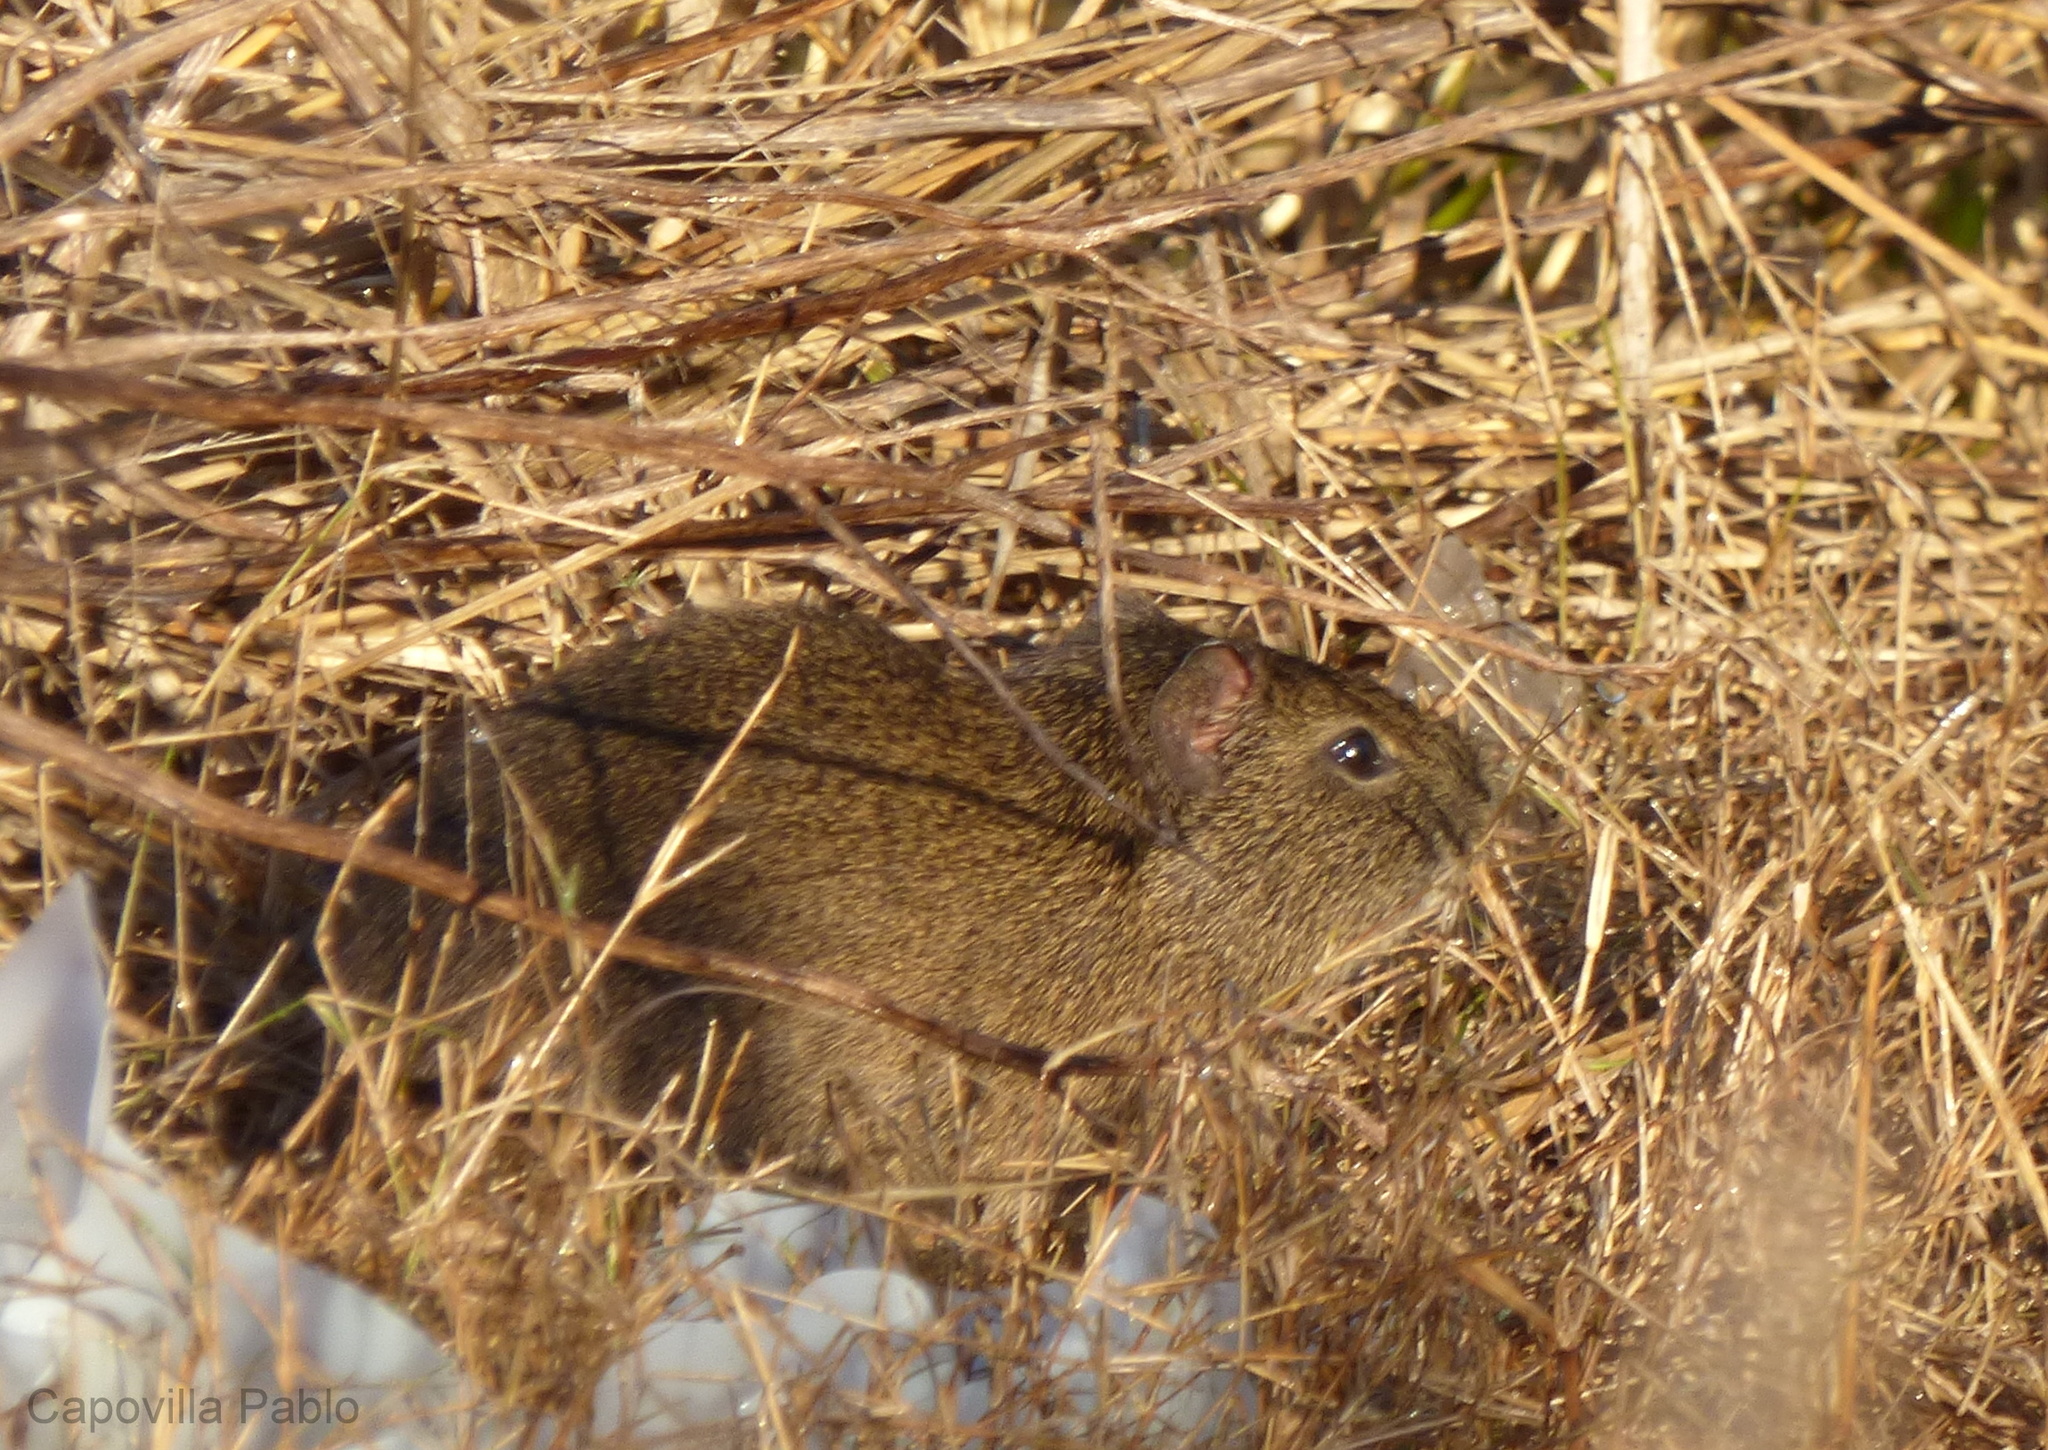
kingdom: Animalia
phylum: Chordata
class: Mammalia
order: Rodentia
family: Caviidae
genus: Cavia
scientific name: Cavia aperea
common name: Brazilian guinea pig
